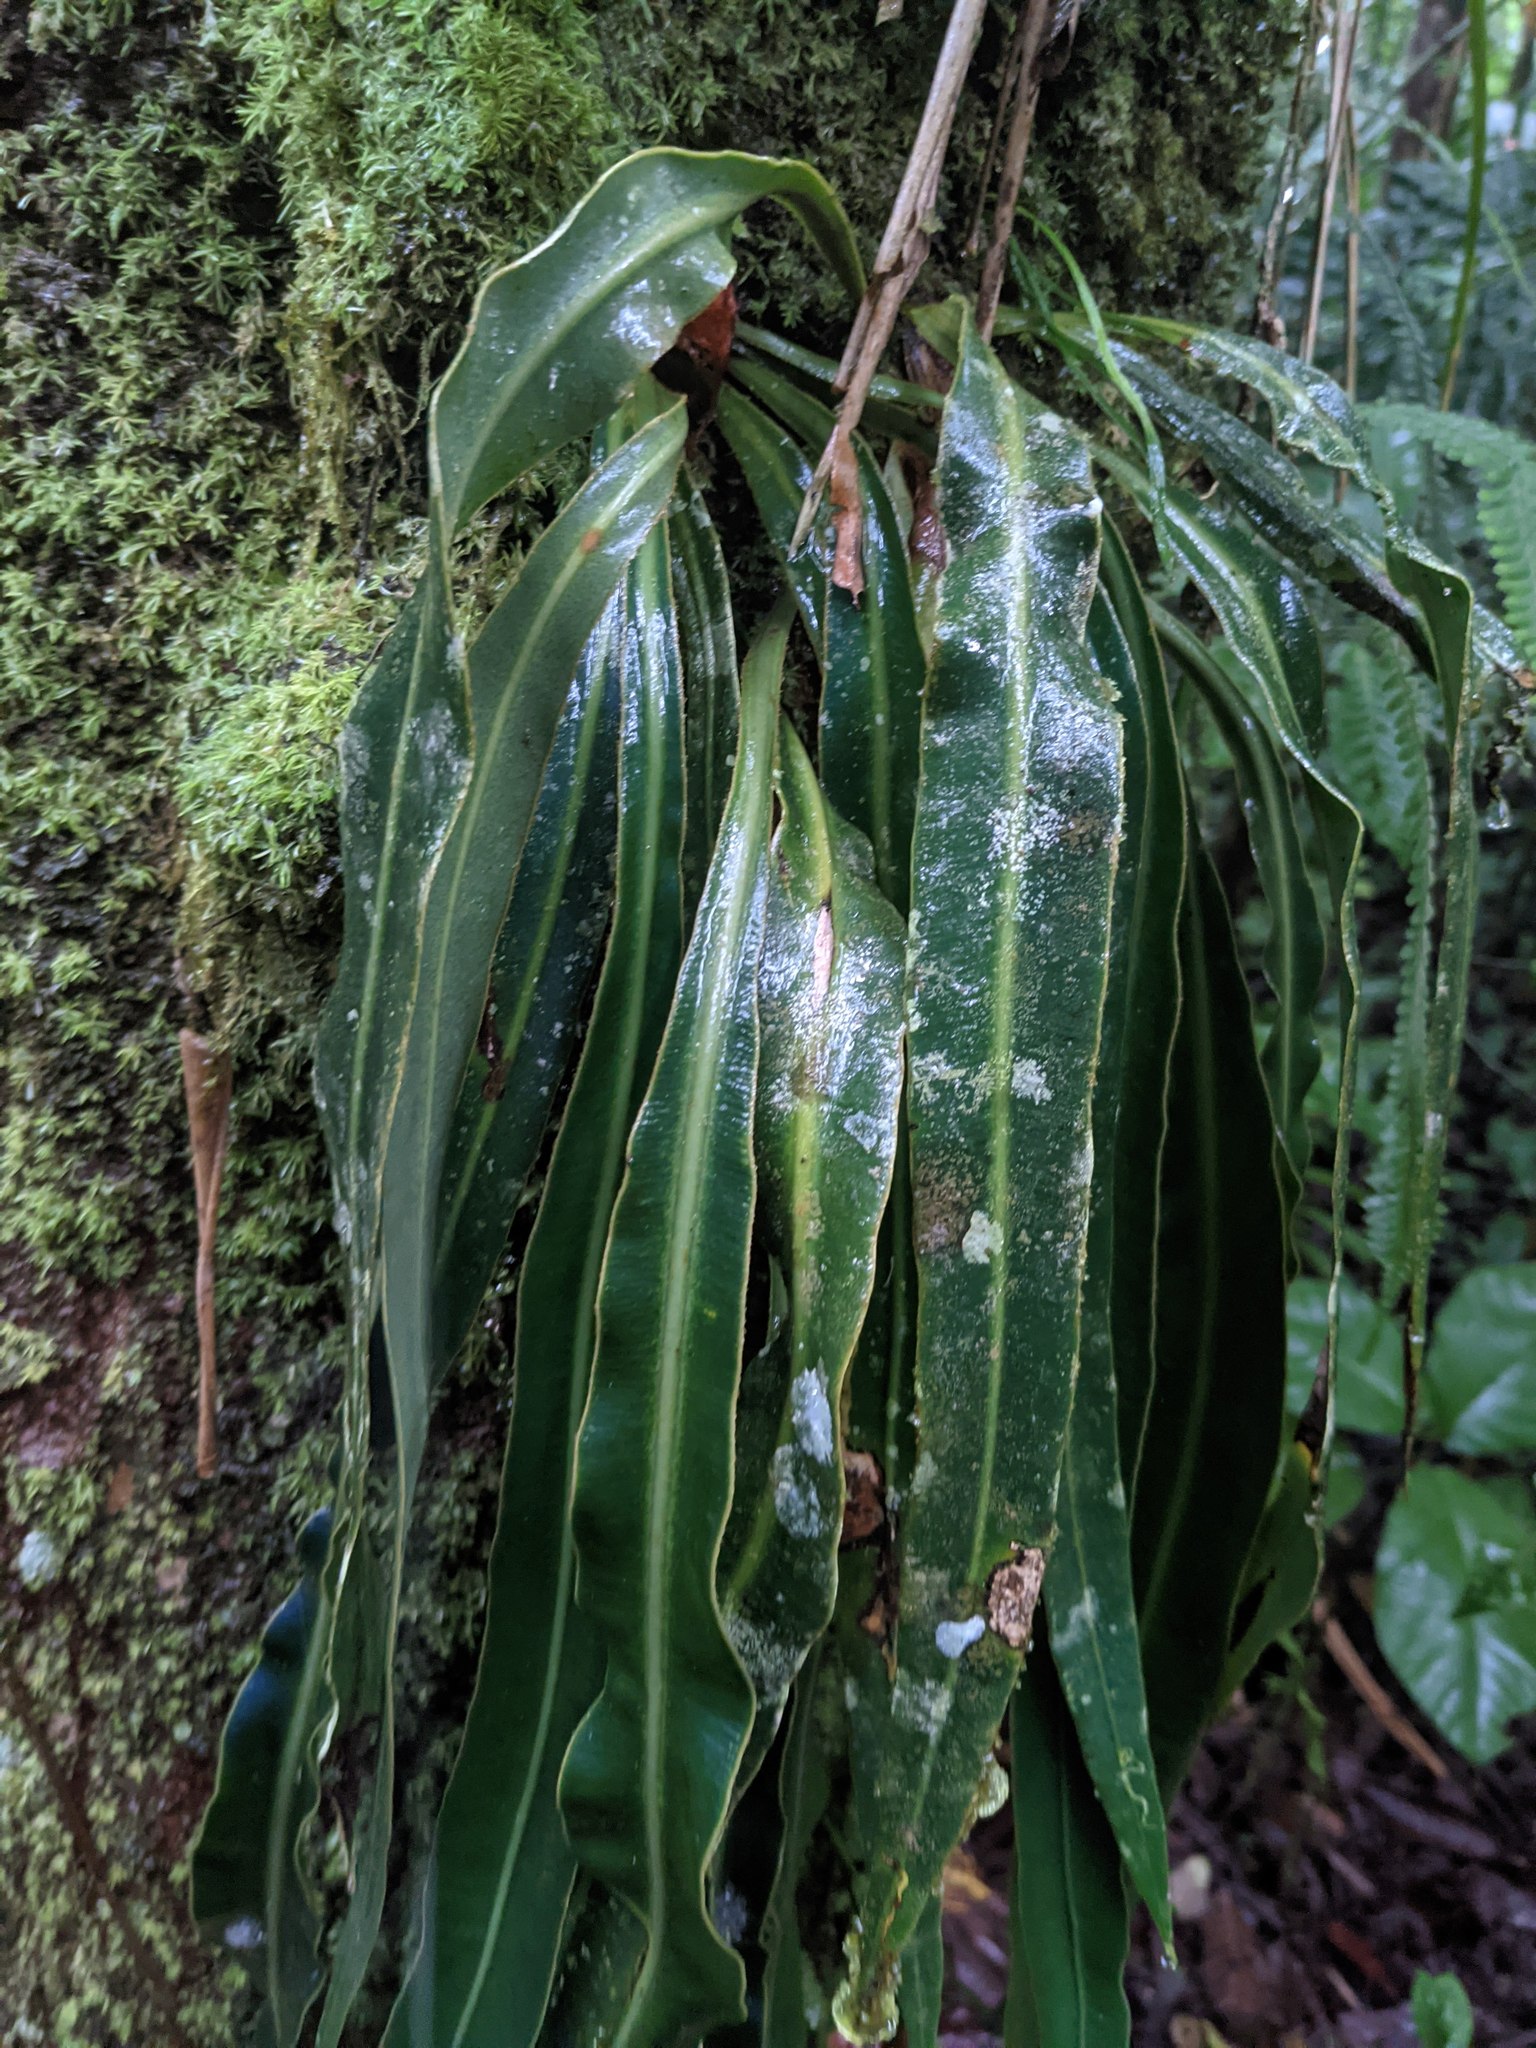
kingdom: Plantae
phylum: Tracheophyta
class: Polypodiopsida
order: Polypodiales
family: Dryopteridaceae
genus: Elaphoglossum
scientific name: Elaphoglossum herminieri
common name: Drooping tonguefern
